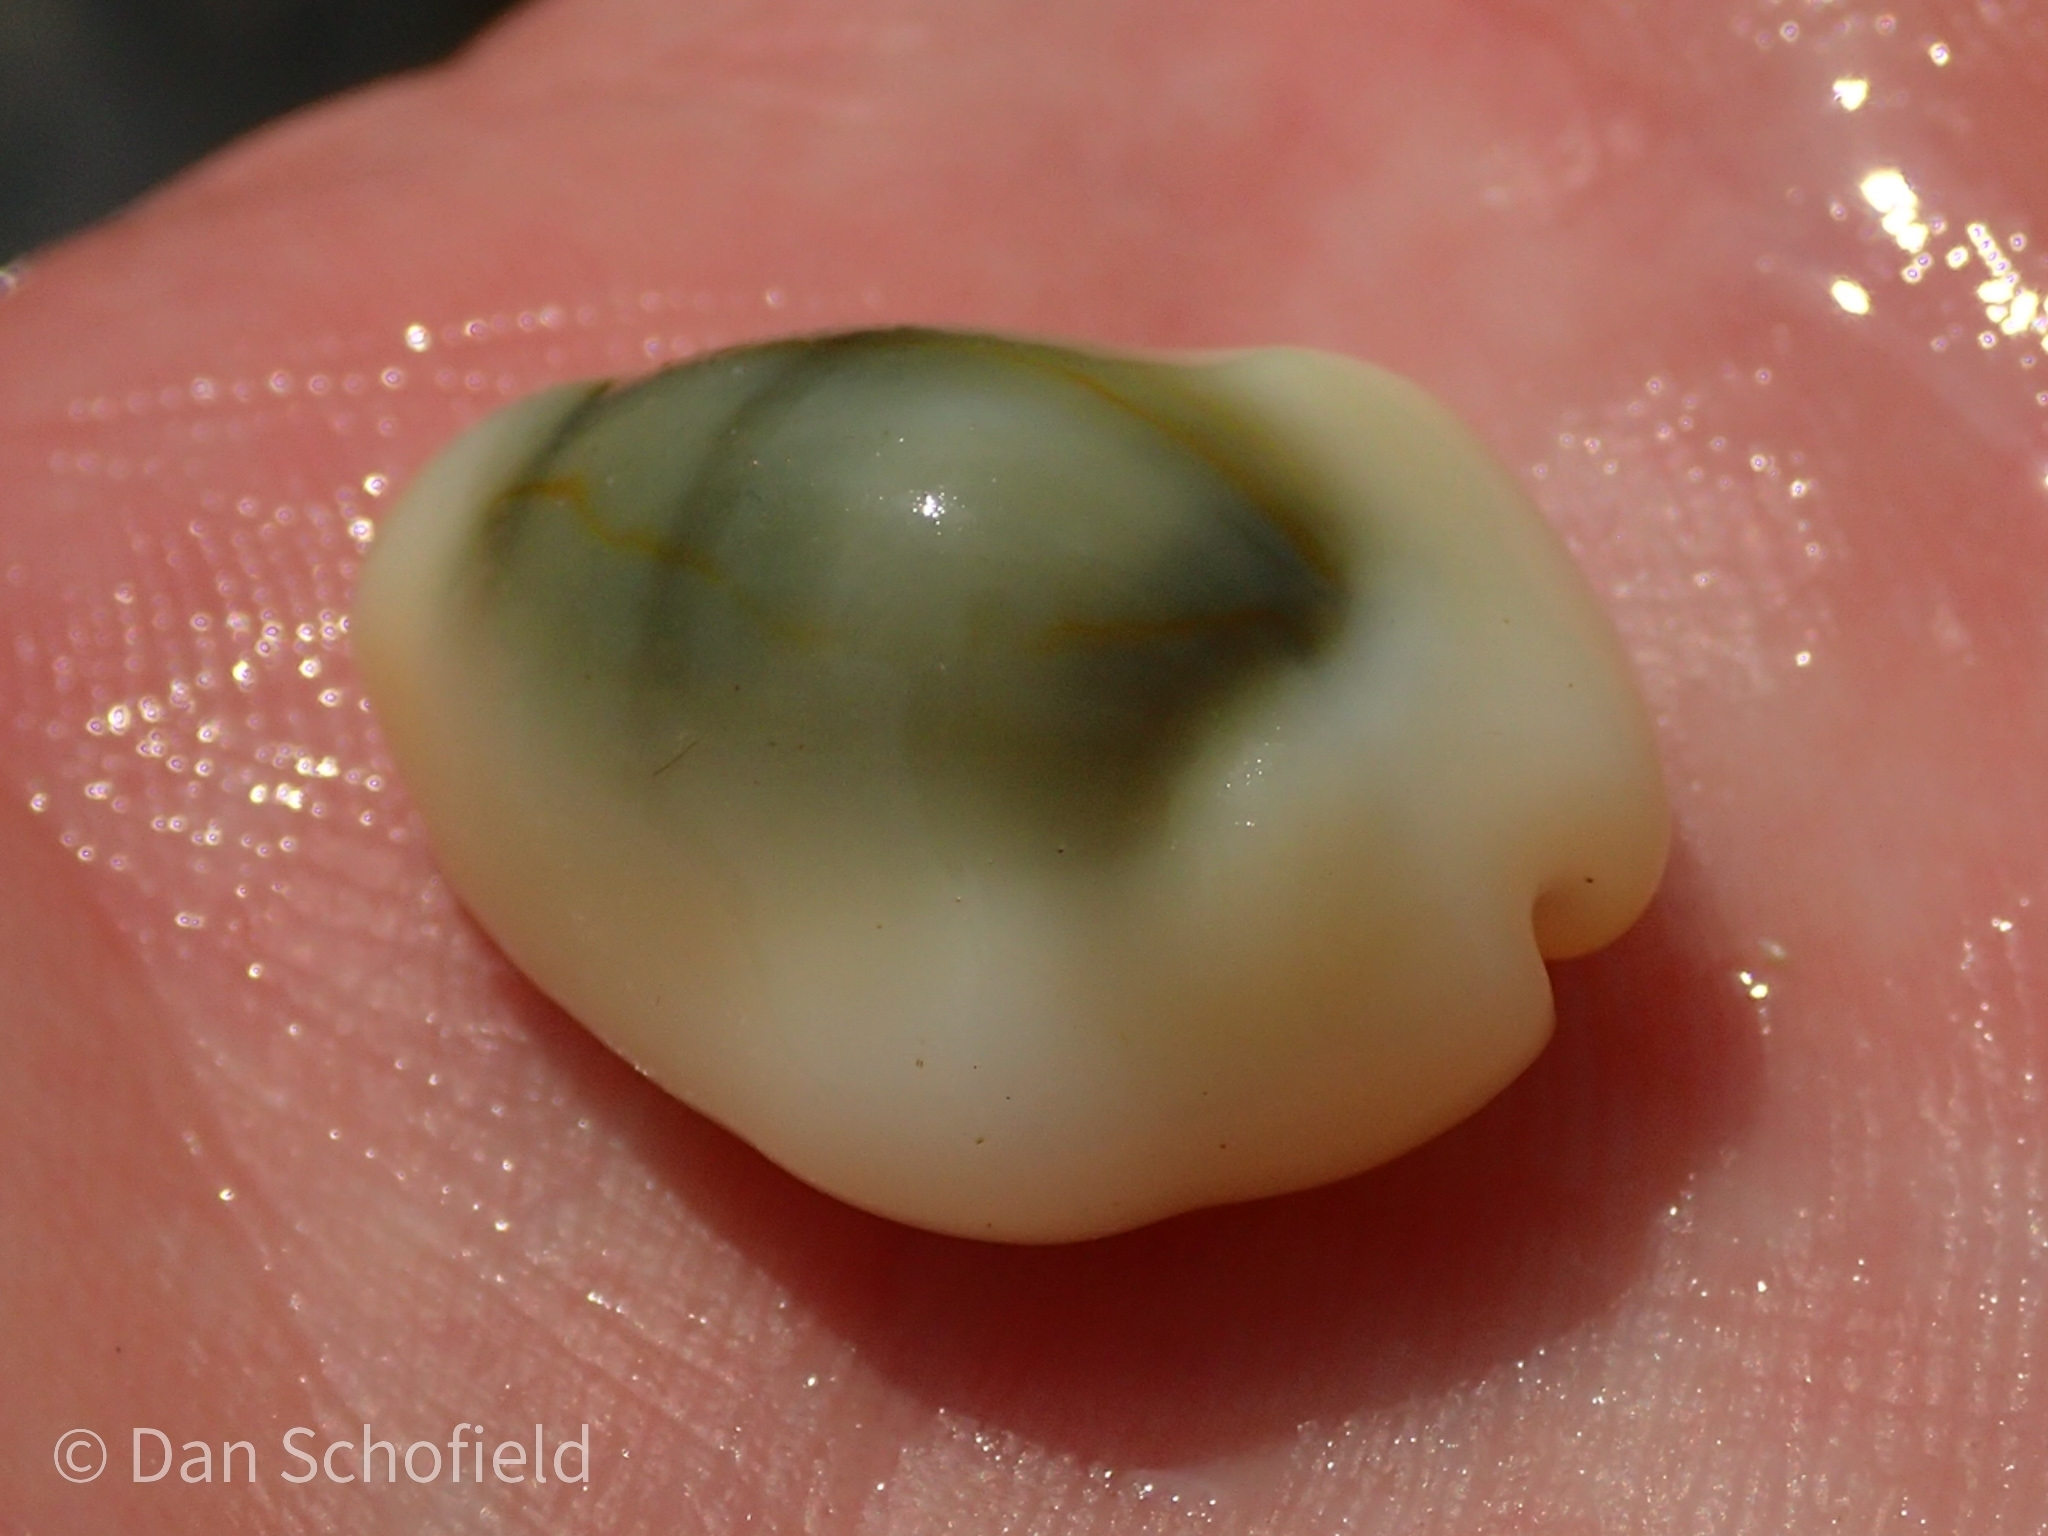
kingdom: Animalia
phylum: Mollusca
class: Gastropoda
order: Littorinimorpha
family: Cypraeidae
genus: Monetaria
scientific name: Monetaria moneta
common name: Money cowrie
